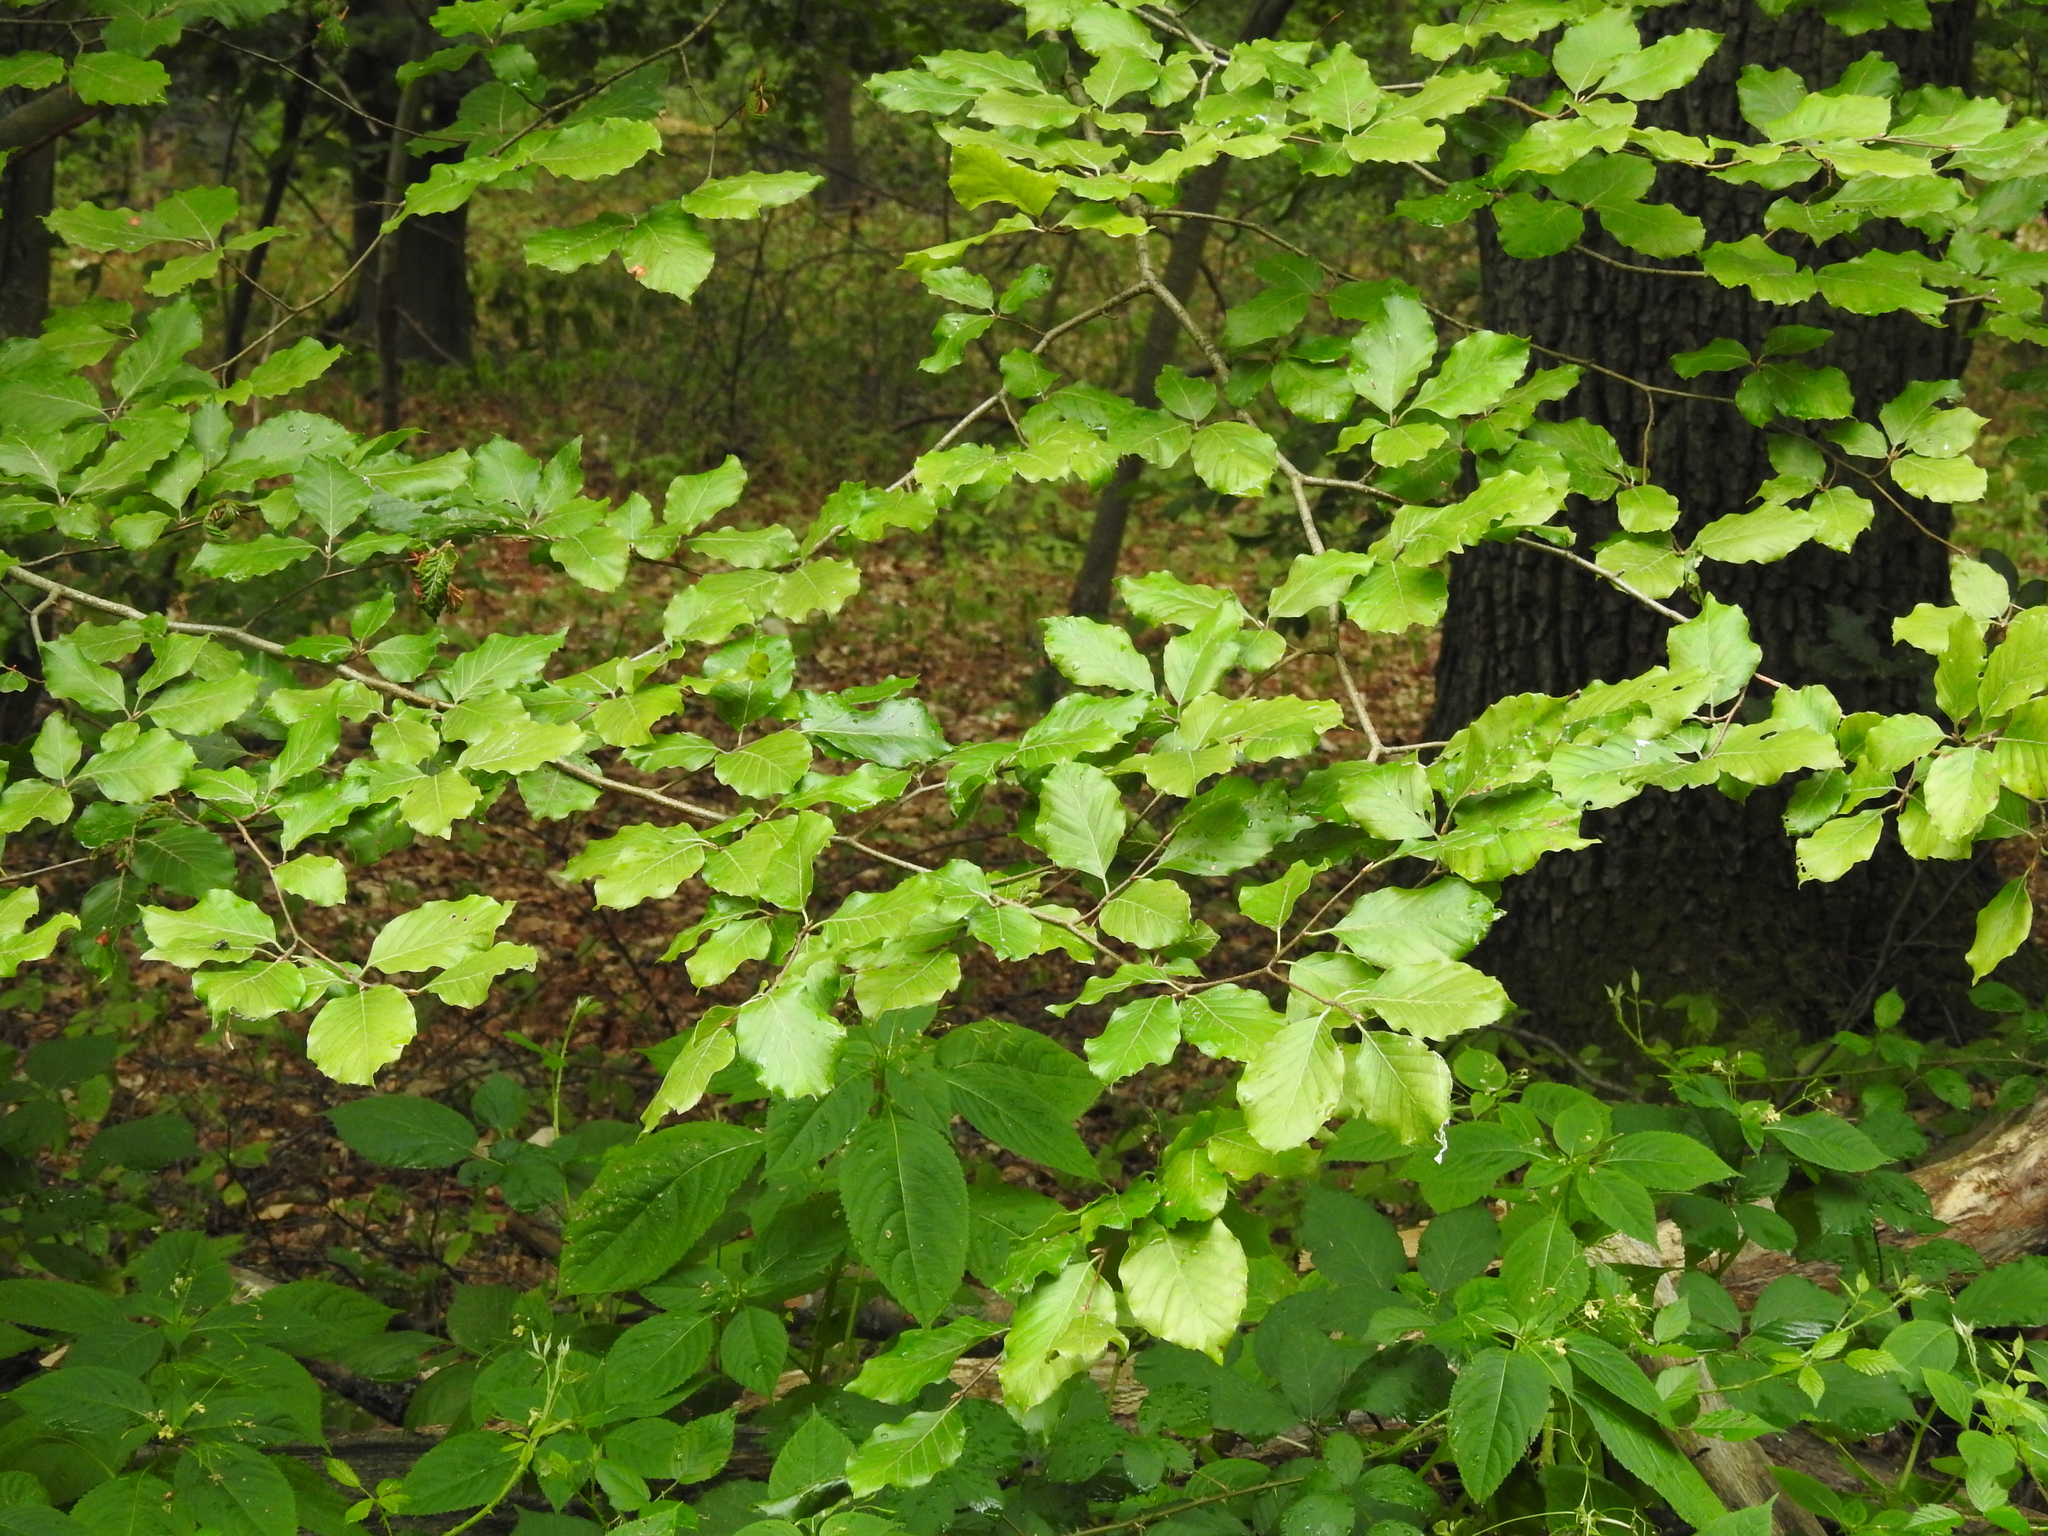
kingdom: Plantae
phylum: Tracheophyta
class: Magnoliopsida
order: Fagales
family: Fagaceae
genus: Fagus
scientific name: Fagus sylvatica
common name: Beech
